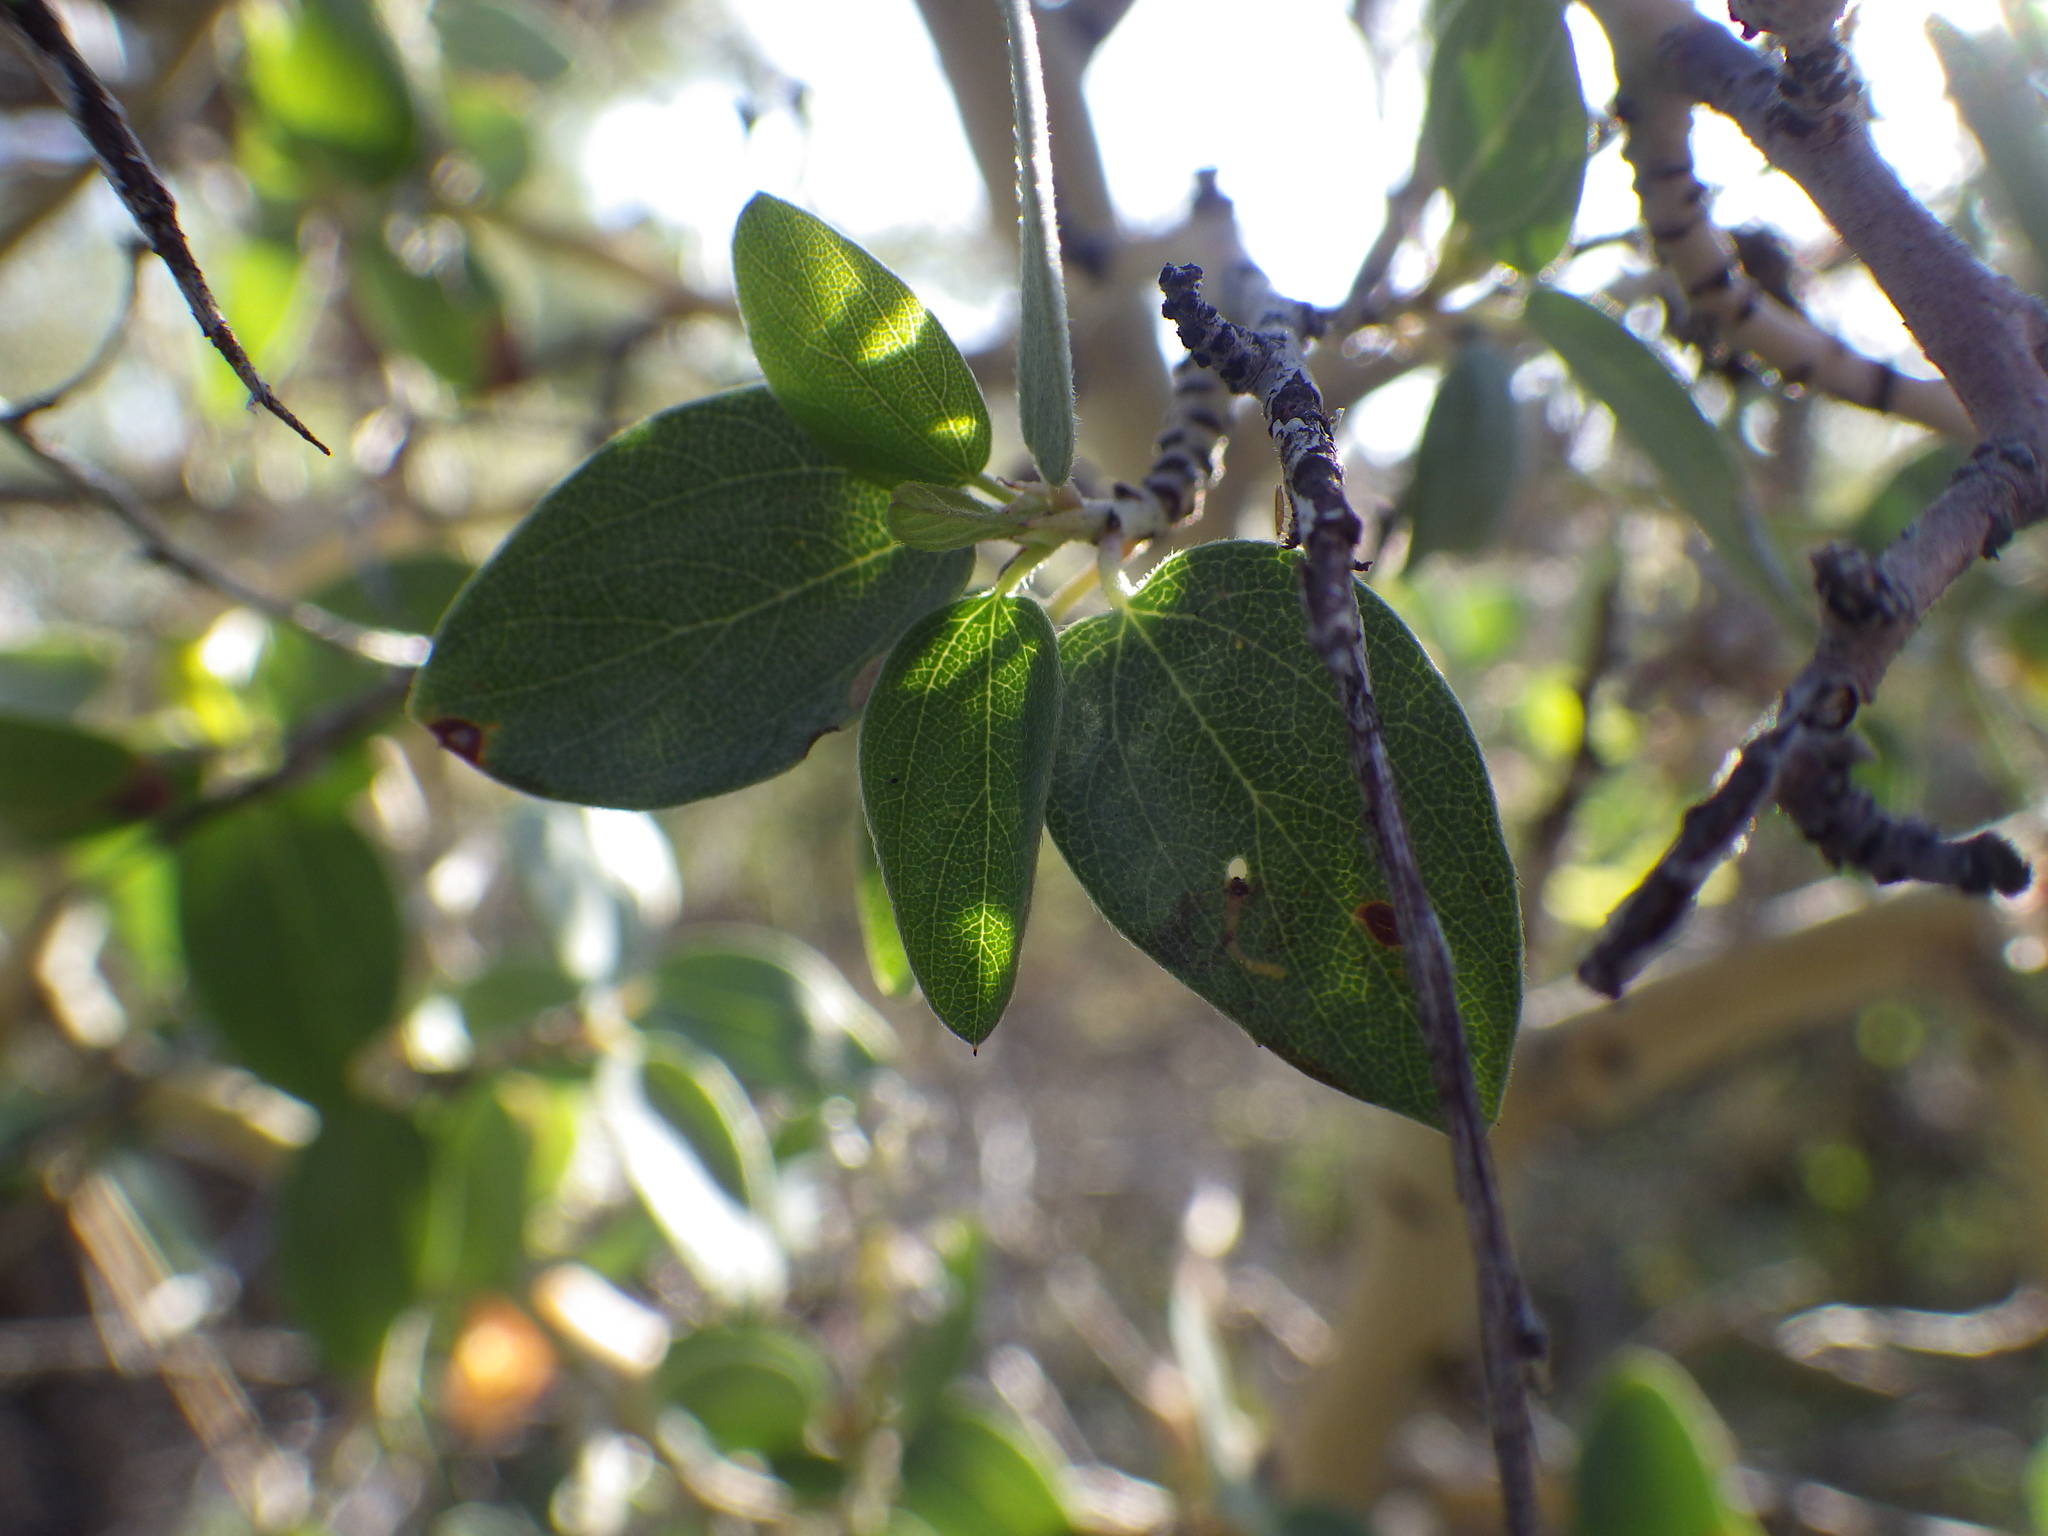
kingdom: Plantae
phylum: Tracheophyta
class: Magnoliopsida
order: Rosales
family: Rhamnaceae
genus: Ceanothus
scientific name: Ceanothus leucodermis
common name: Chaparral whitethorn
